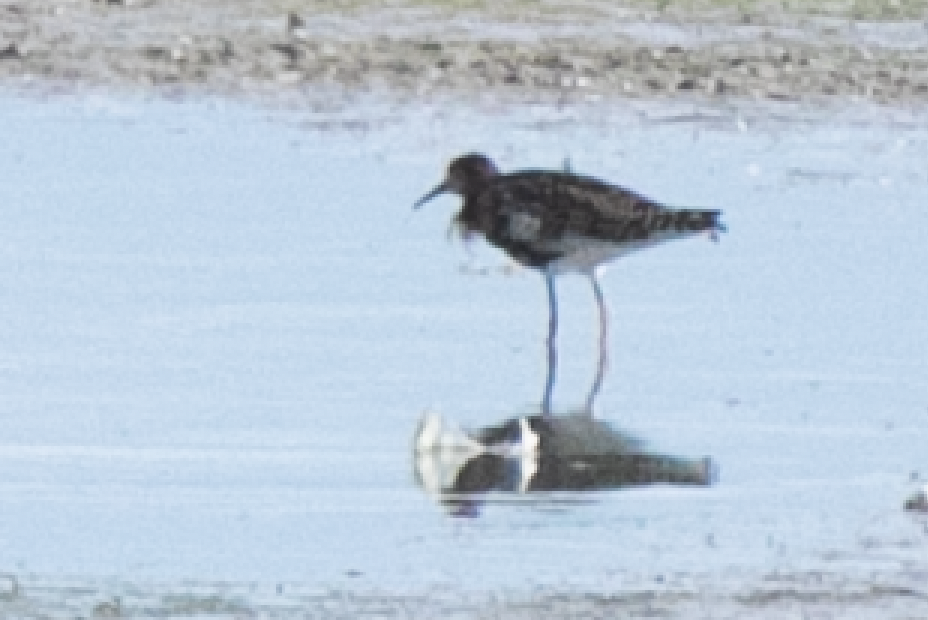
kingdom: Animalia
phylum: Chordata
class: Aves
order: Charadriiformes
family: Scolopacidae
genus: Calidris
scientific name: Calidris pugnax
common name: Ruff
